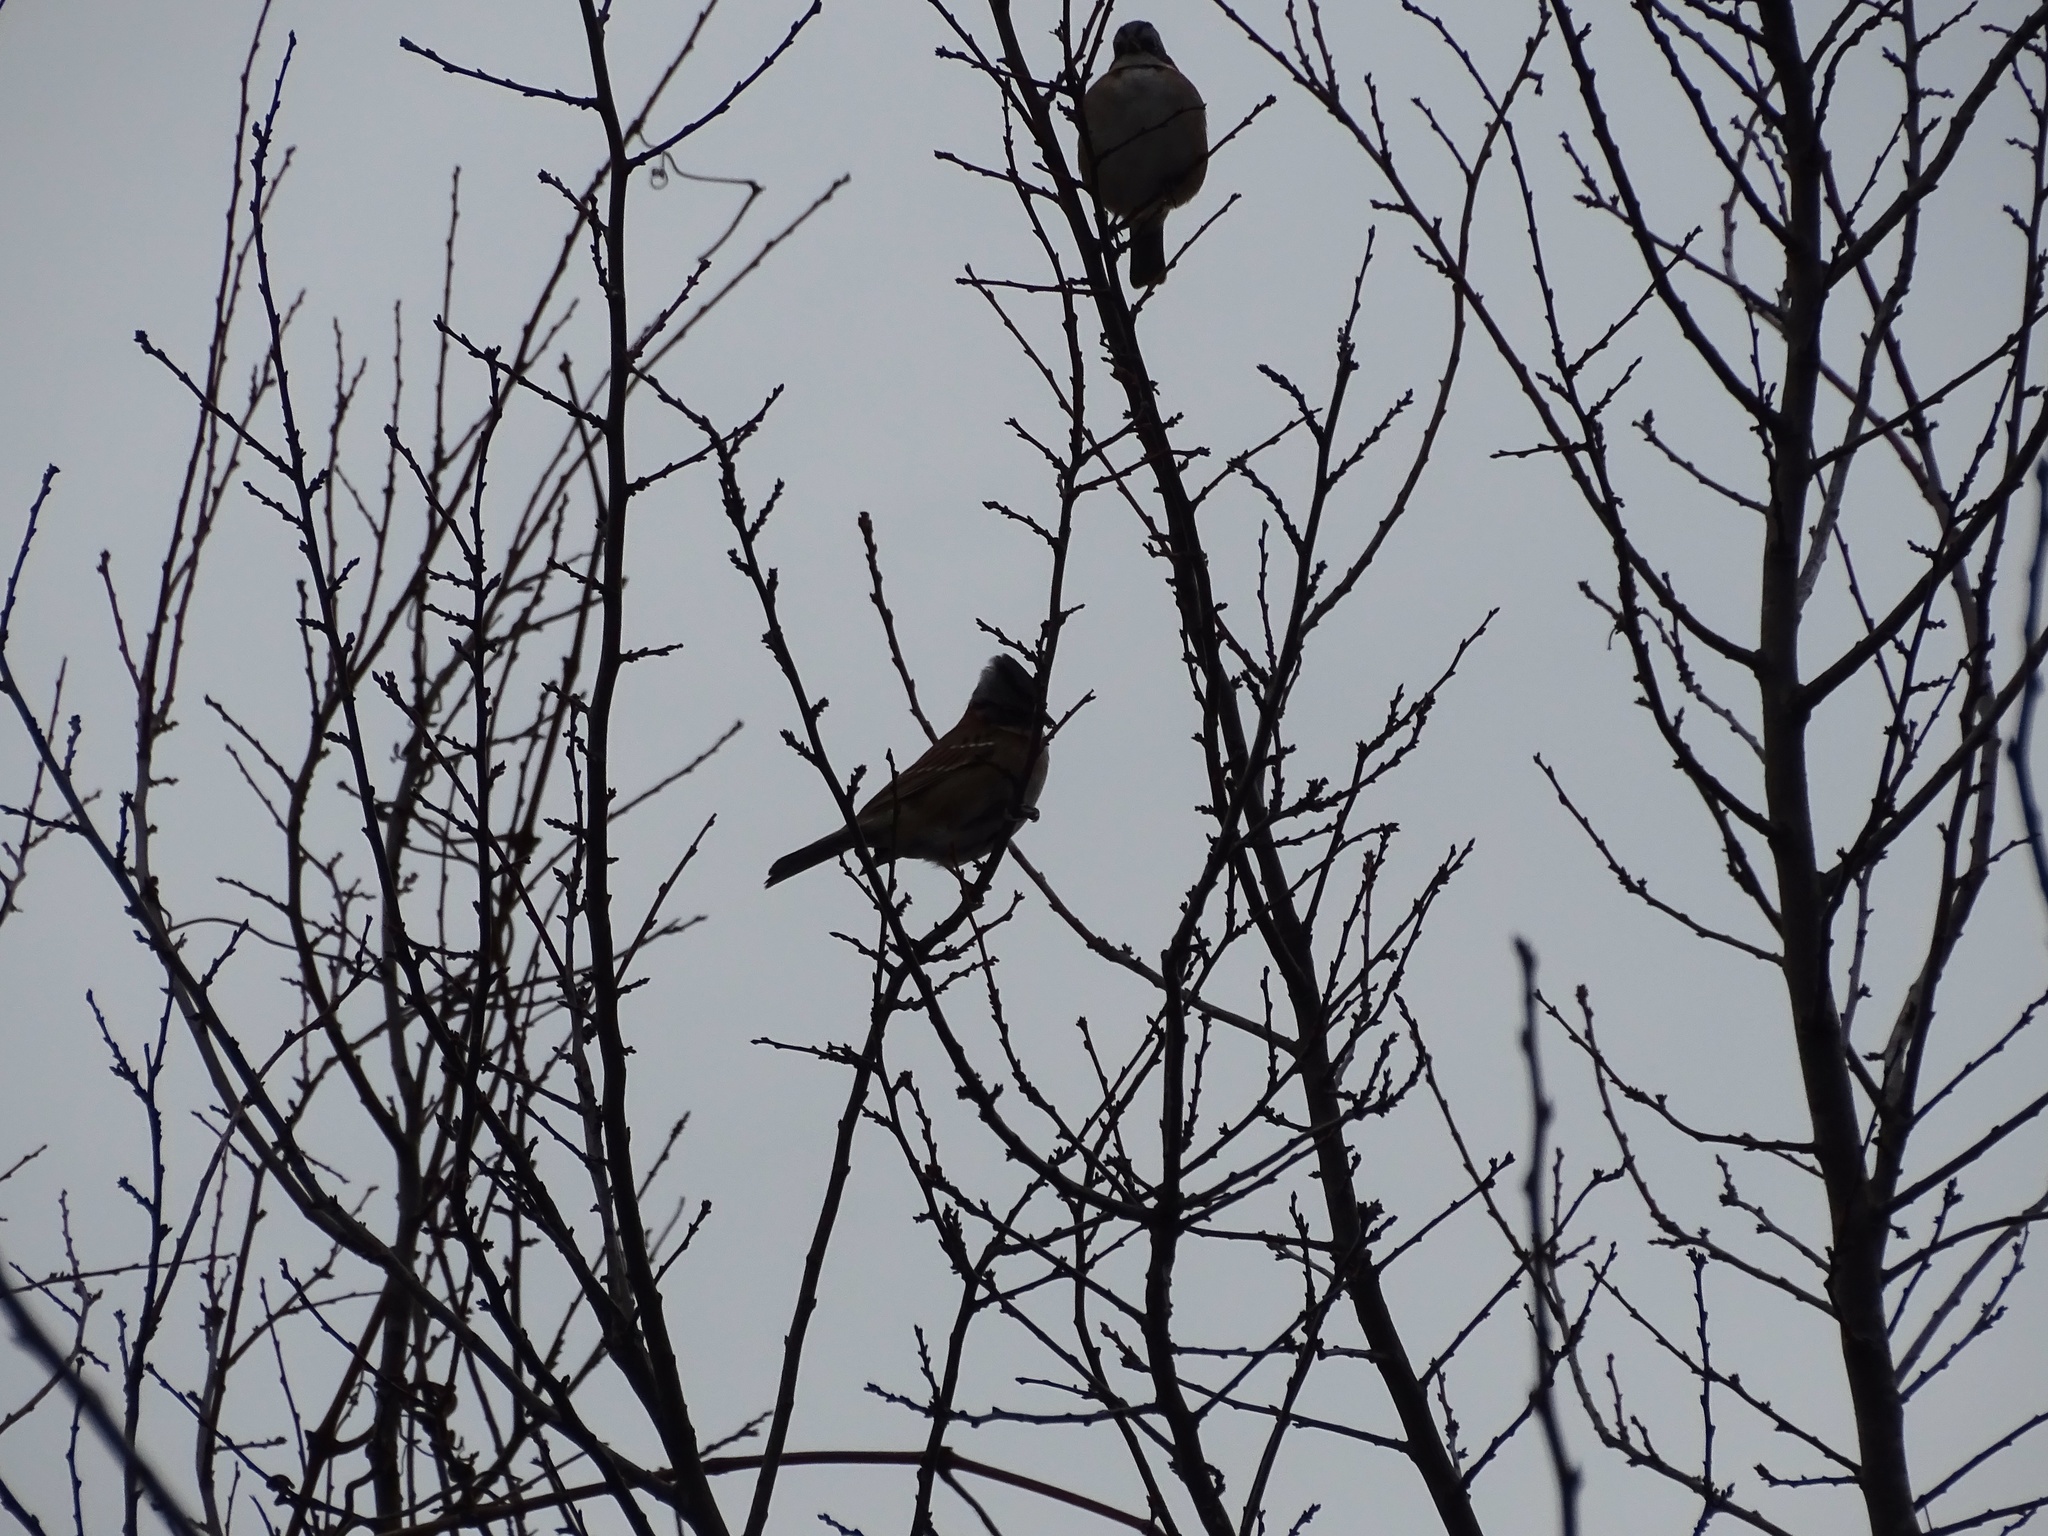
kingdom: Animalia
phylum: Chordata
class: Aves
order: Passeriformes
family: Passerellidae
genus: Zonotrichia
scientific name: Zonotrichia capensis
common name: Rufous-collared sparrow
